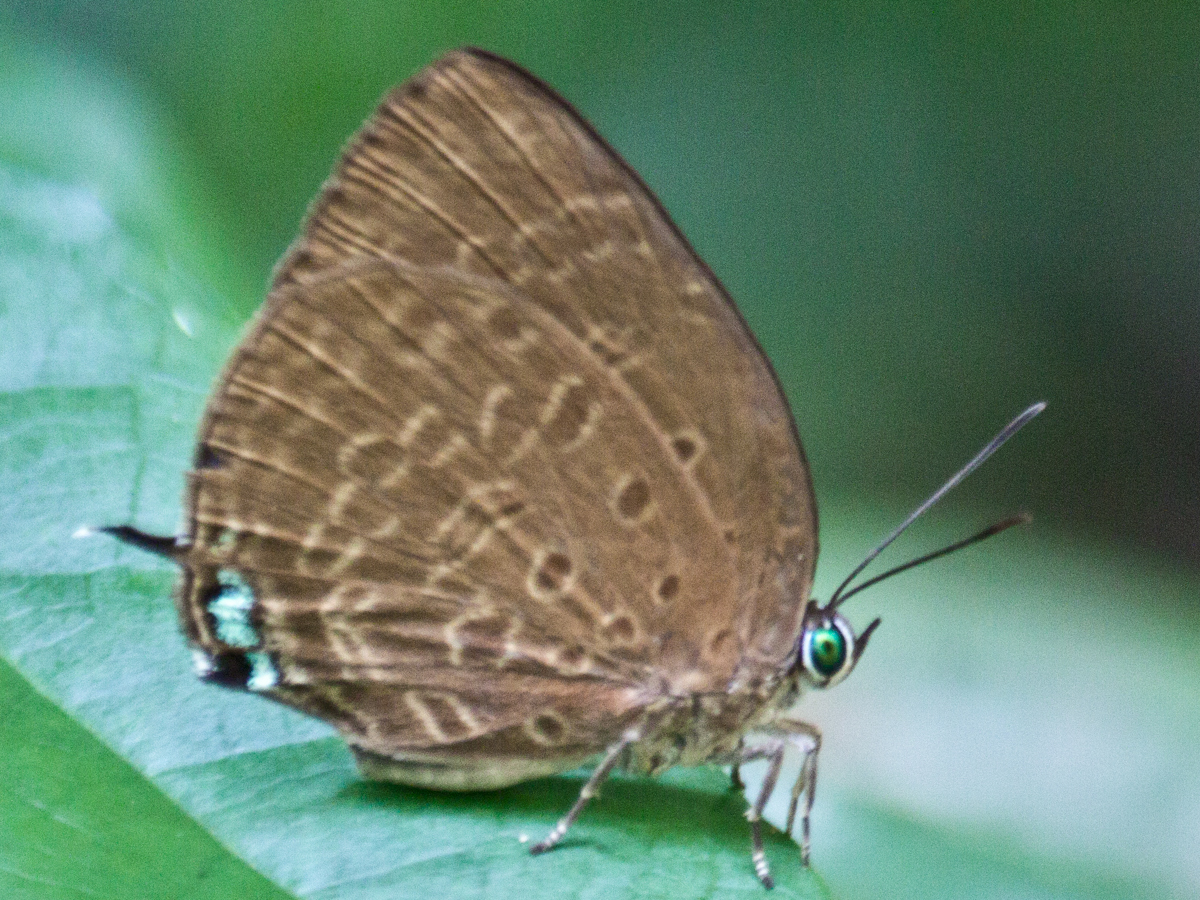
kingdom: Animalia
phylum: Arthropoda
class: Insecta
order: Lepidoptera
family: Lycaenidae
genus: Arhopala
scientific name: Arhopala atosia
